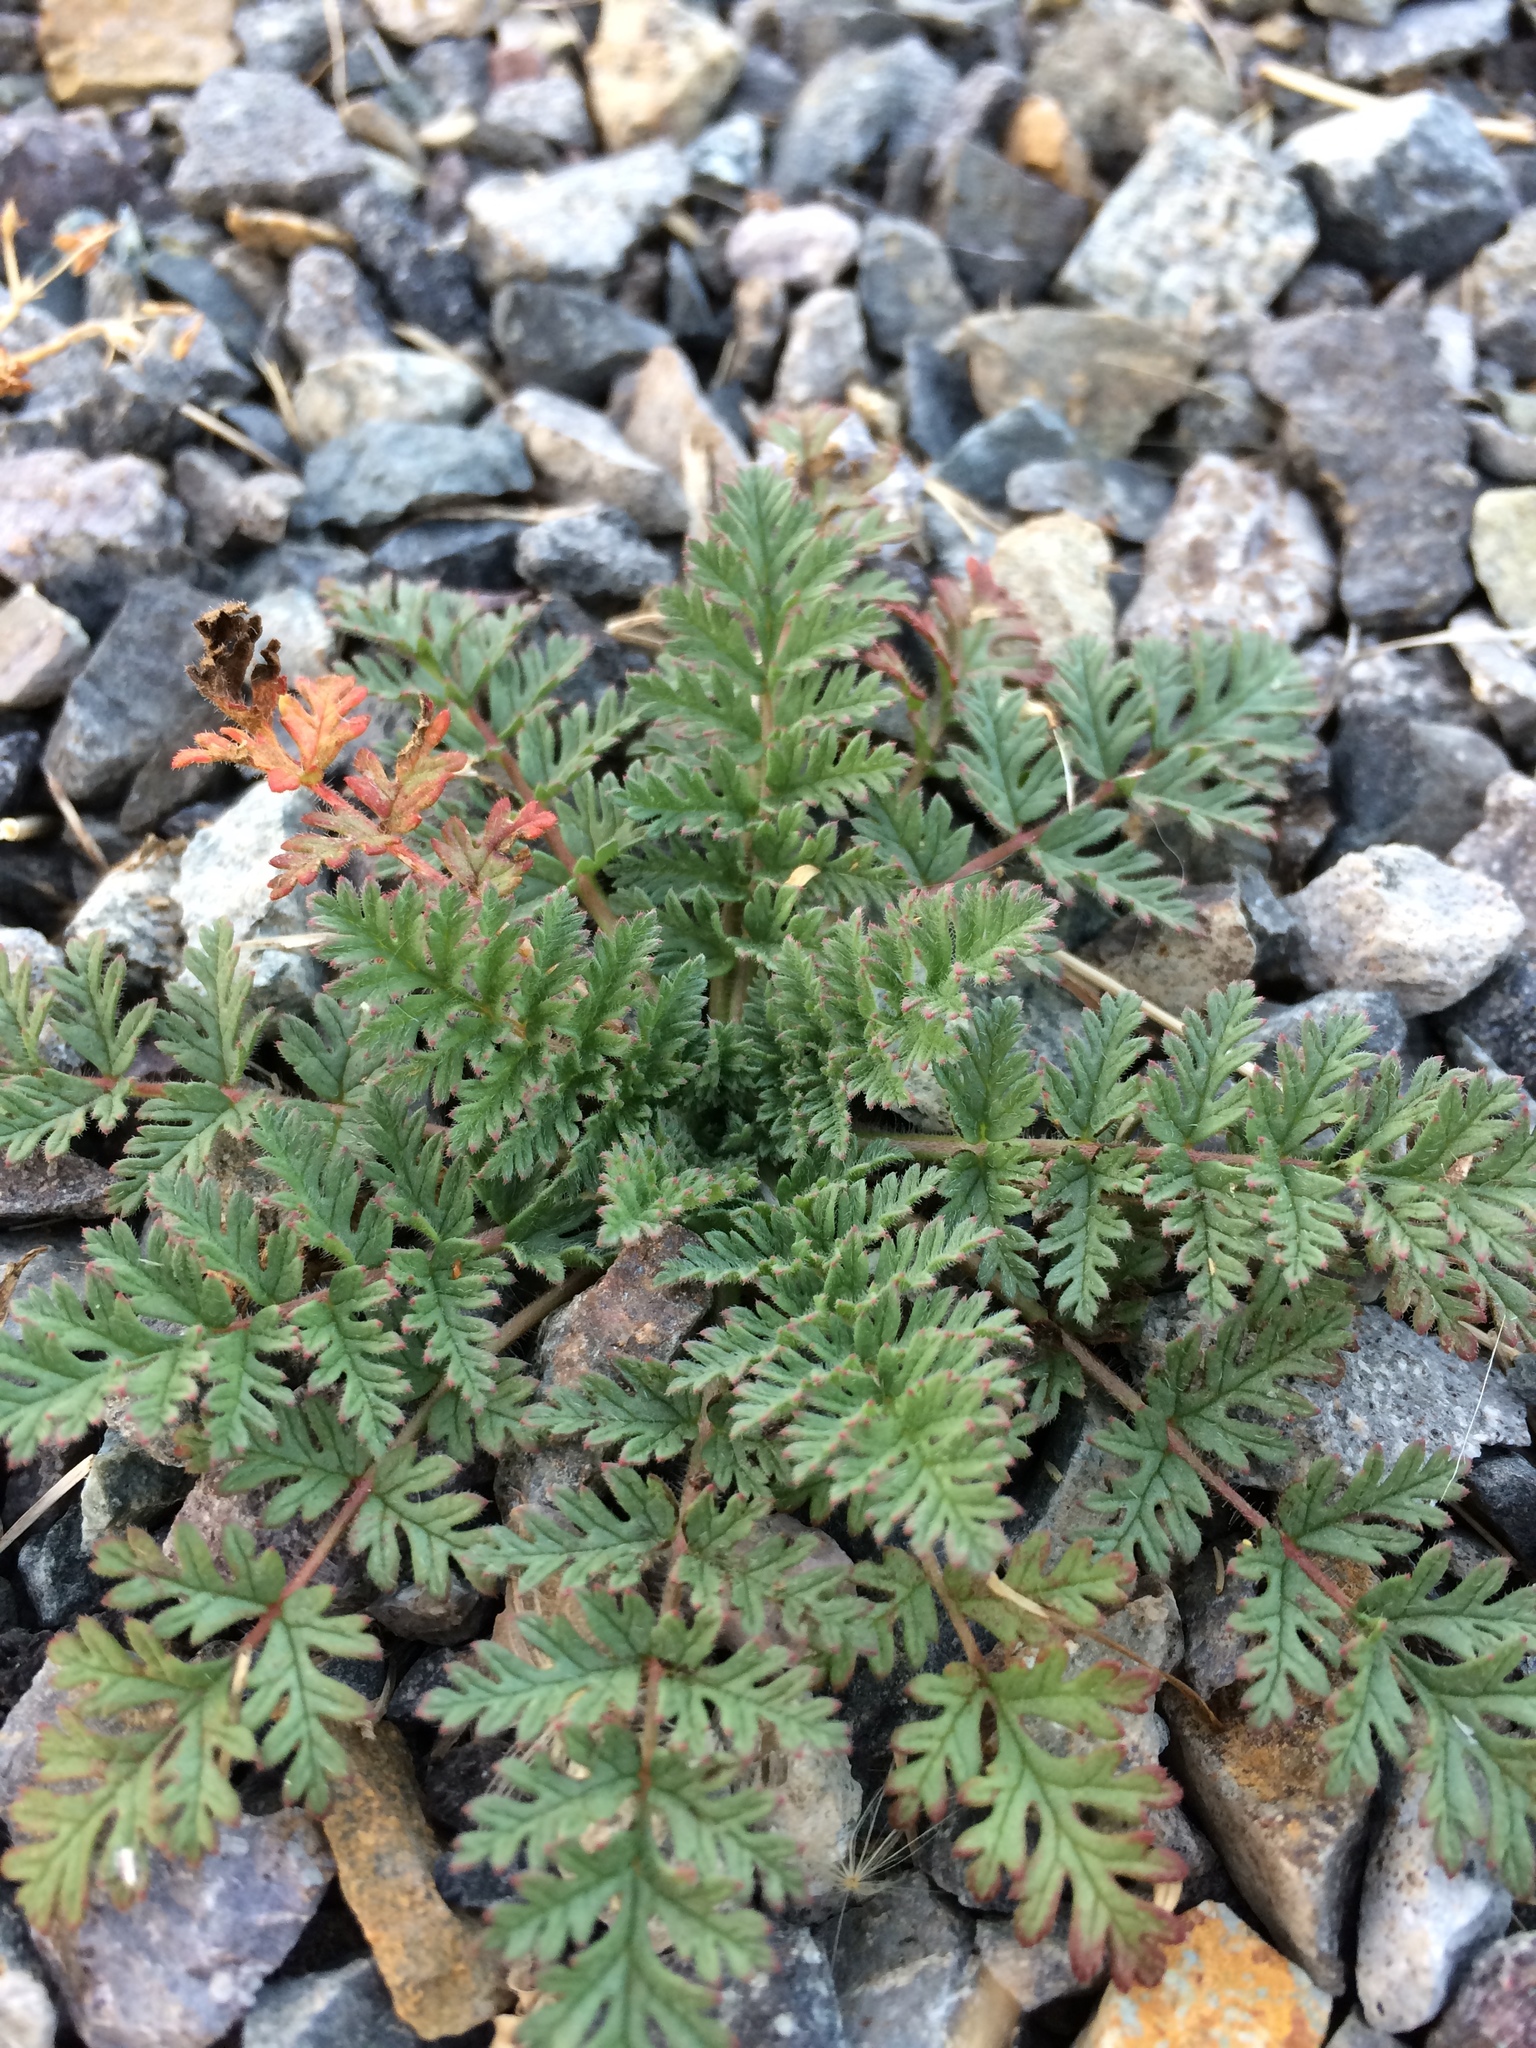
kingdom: Plantae
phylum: Tracheophyta
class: Magnoliopsida
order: Geraniales
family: Geraniaceae
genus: Erodium
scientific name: Erodium cicutarium
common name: Common stork's-bill
